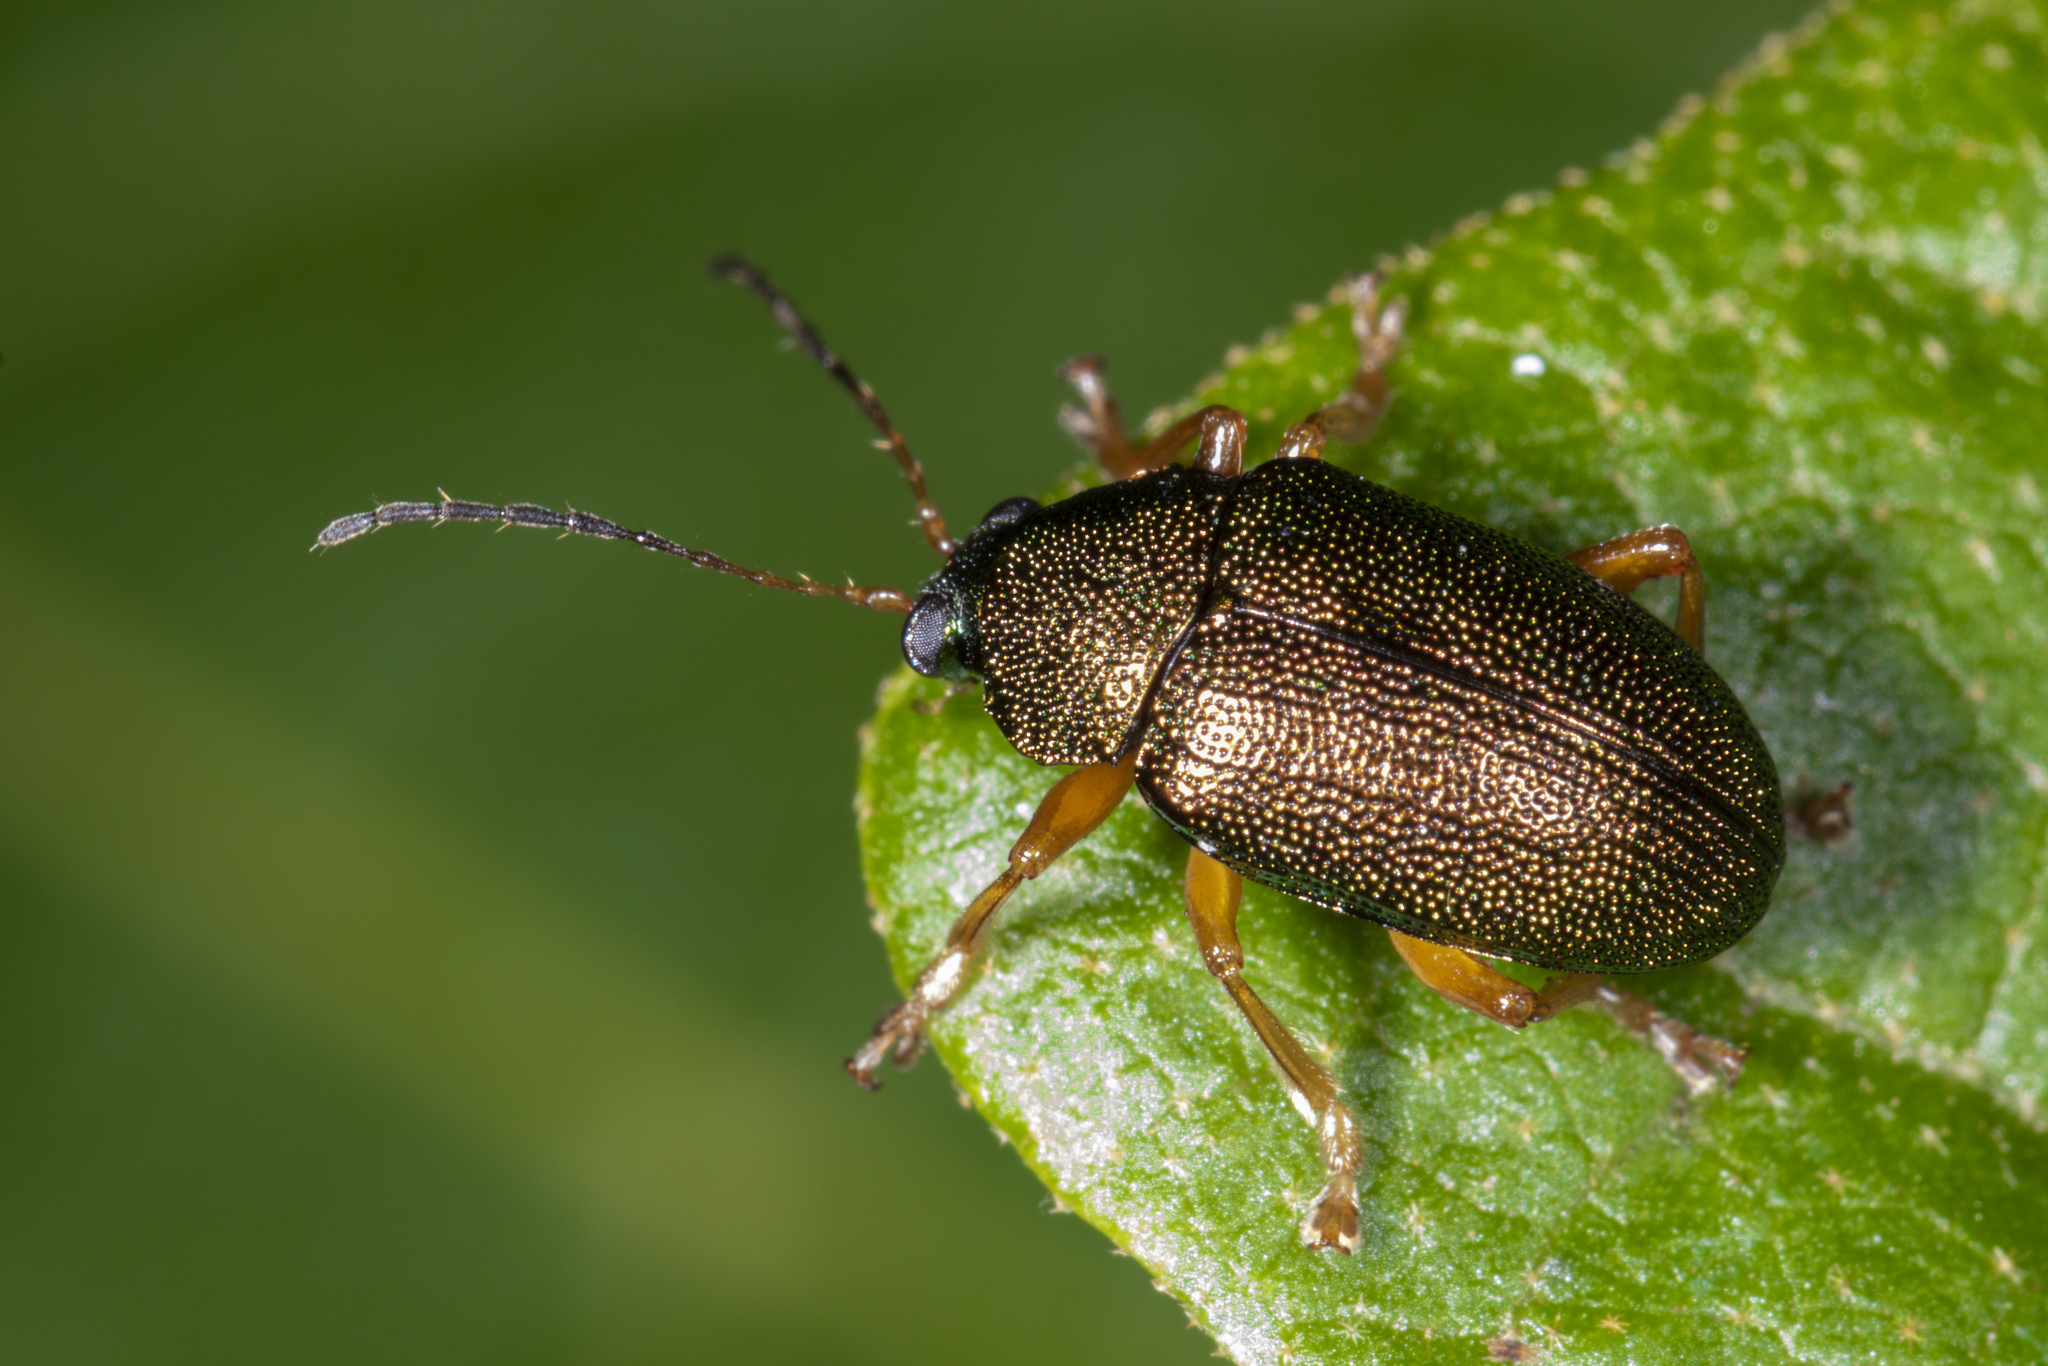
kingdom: Animalia
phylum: Arthropoda
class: Insecta
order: Coleoptera
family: Chrysomelidae
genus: Colaspis
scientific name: Colaspis
